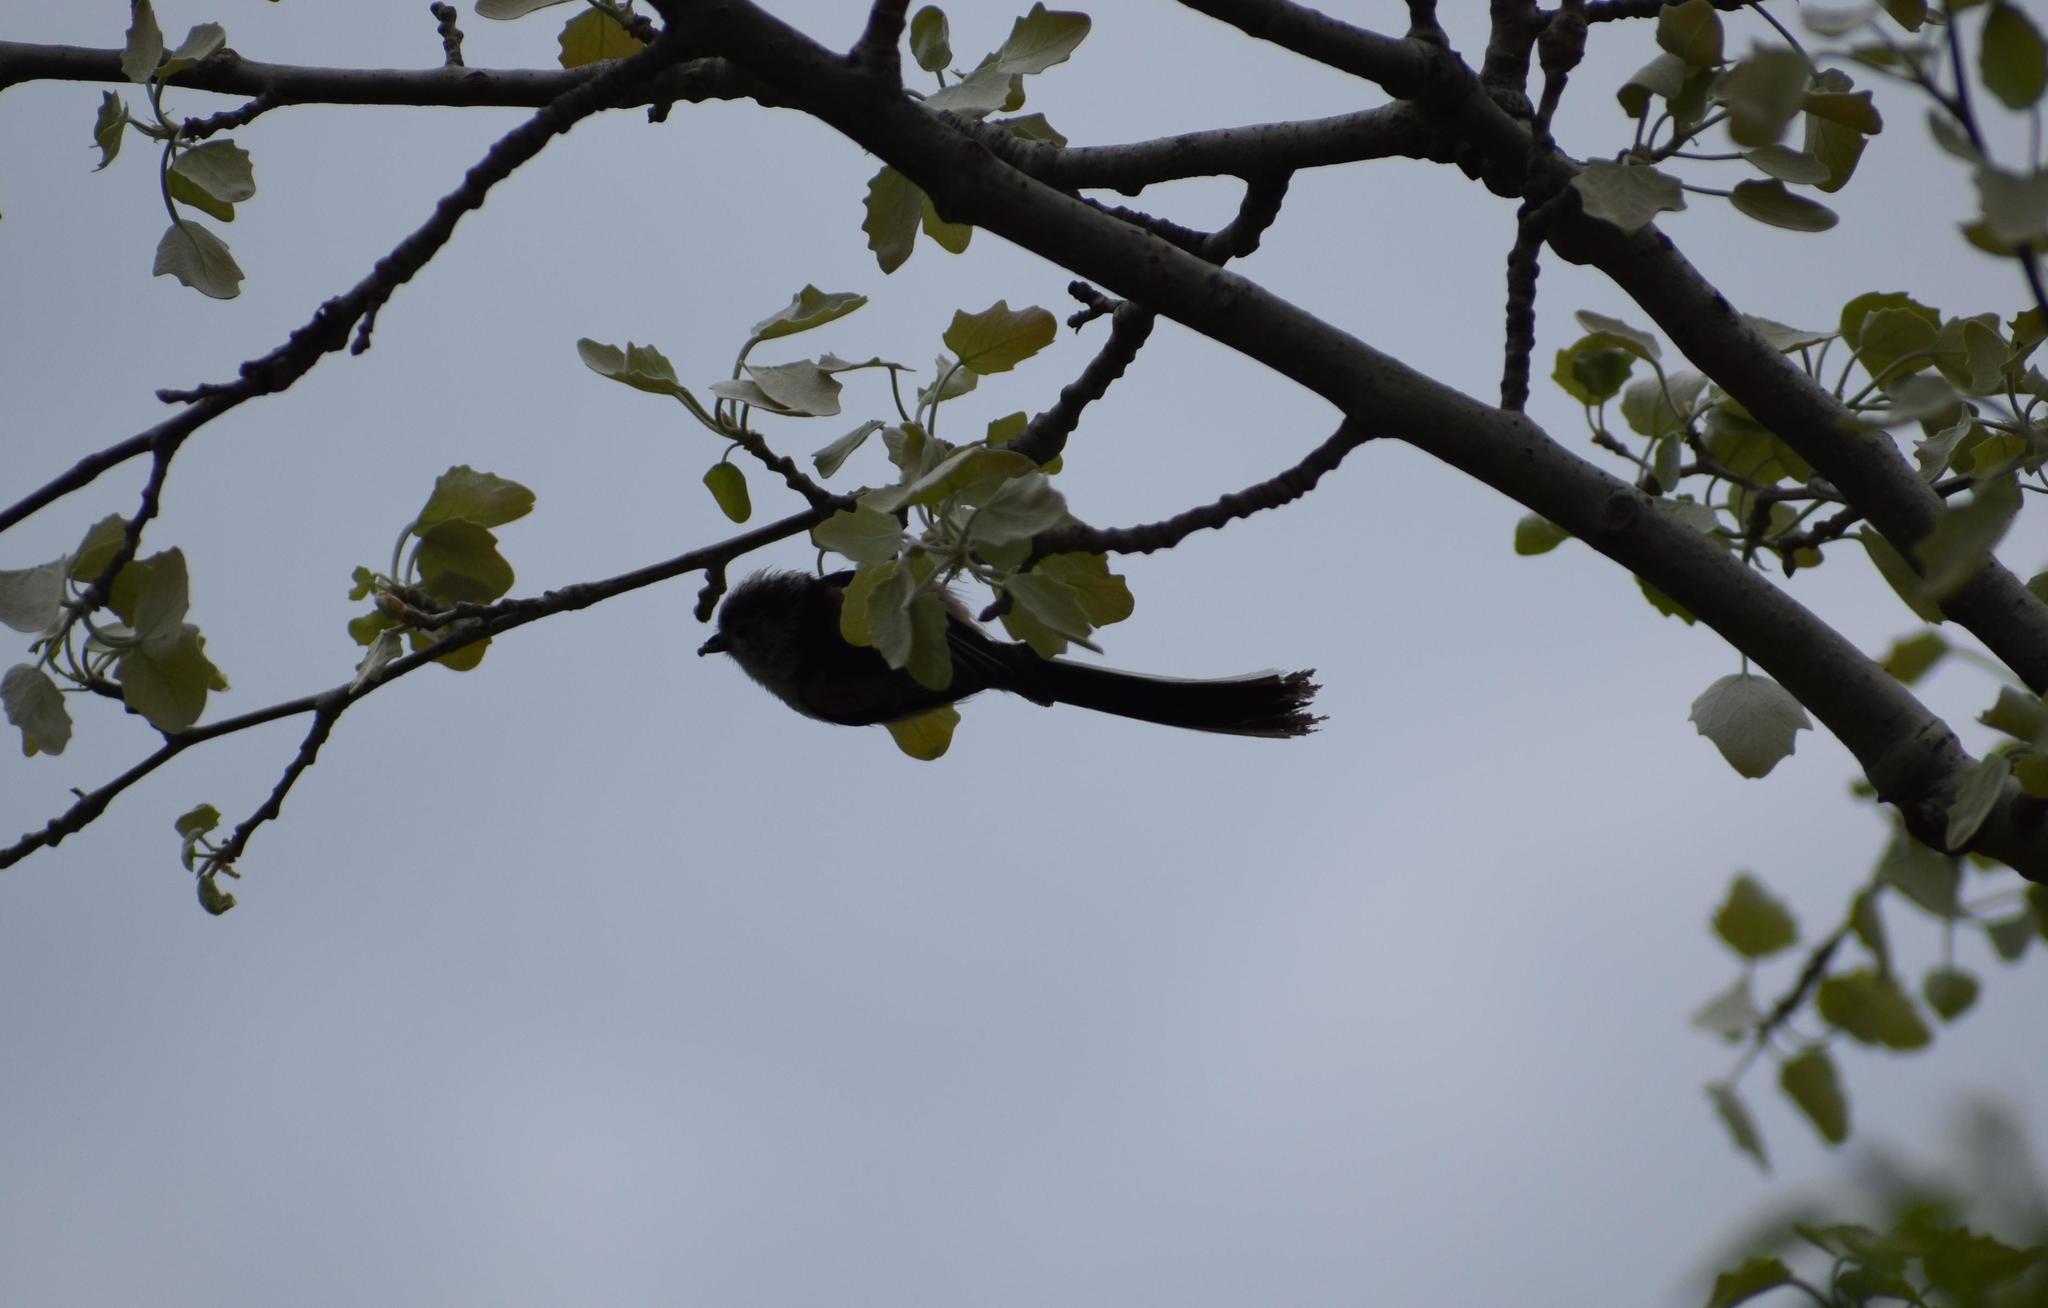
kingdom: Animalia
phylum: Chordata
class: Aves
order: Passeriformes
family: Aegithalidae
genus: Aegithalos
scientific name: Aegithalos caudatus
